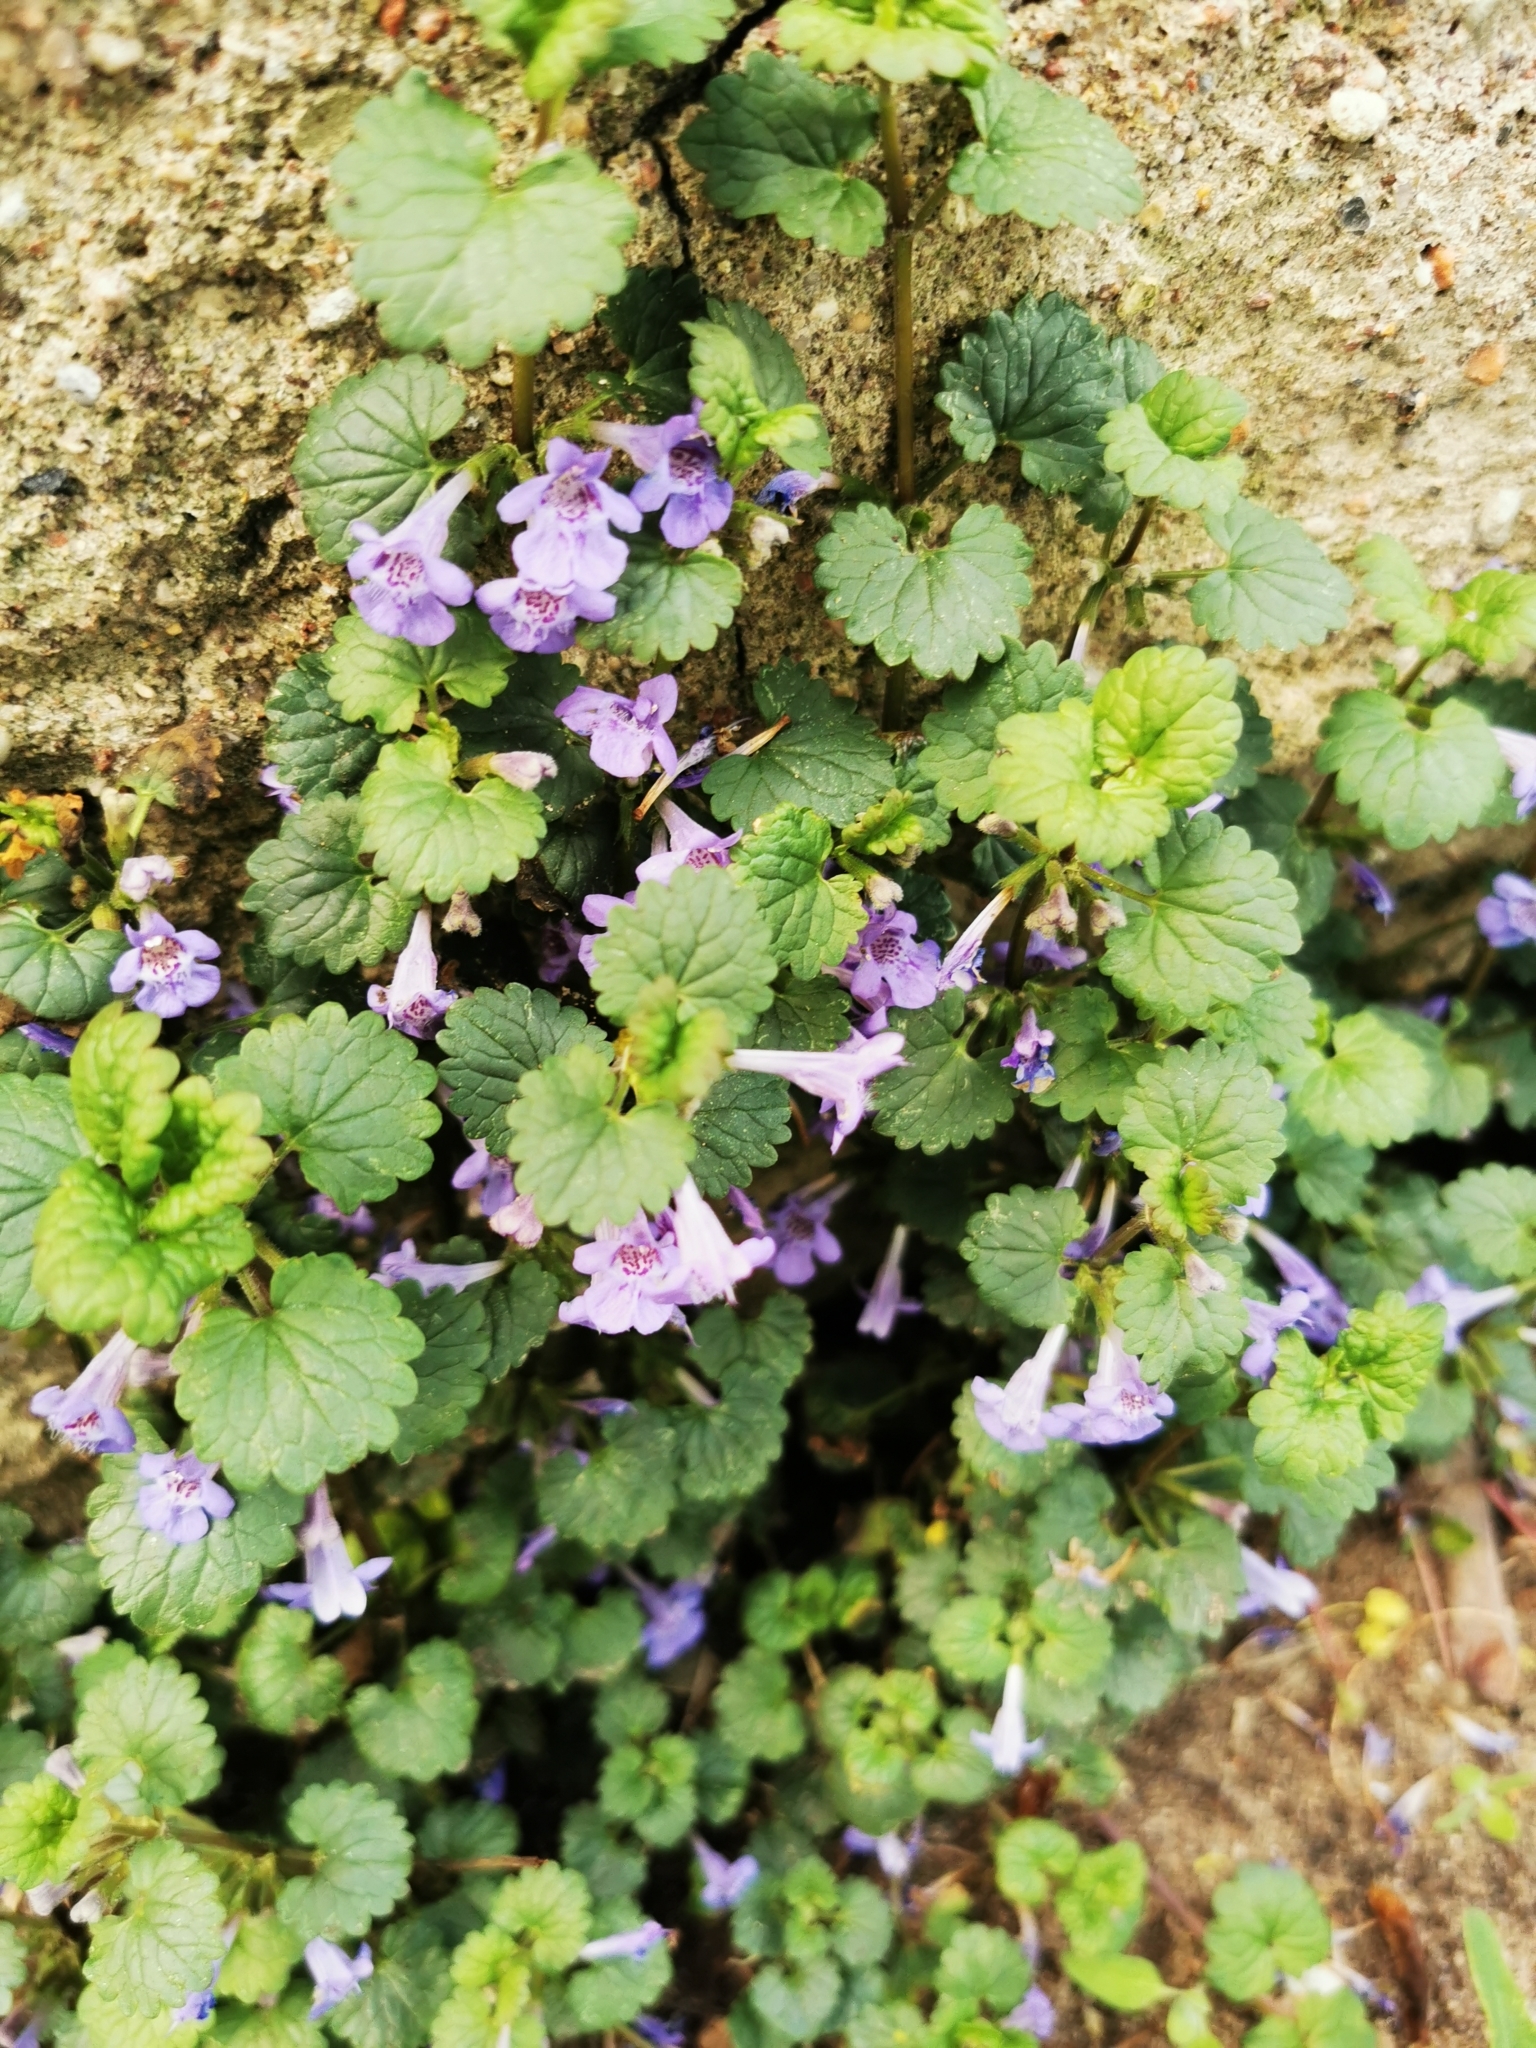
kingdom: Plantae
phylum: Tracheophyta
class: Magnoliopsida
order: Lamiales
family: Lamiaceae
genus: Glechoma
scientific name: Glechoma hederacea
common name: Ground ivy
